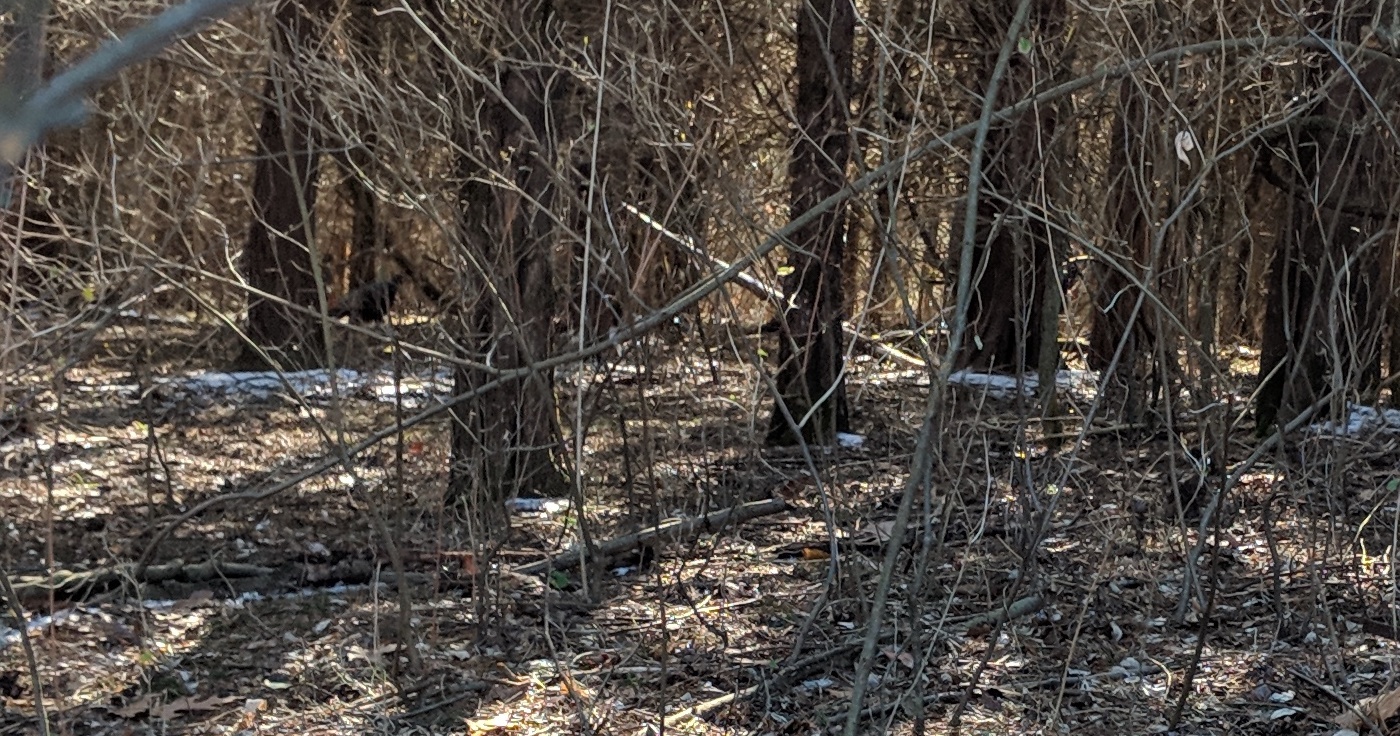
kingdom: Animalia
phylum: Chordata
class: Aves
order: Galliformes
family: Phasianidae
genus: Meleagris
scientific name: Meleagris gallopavo
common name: Wild turkey
